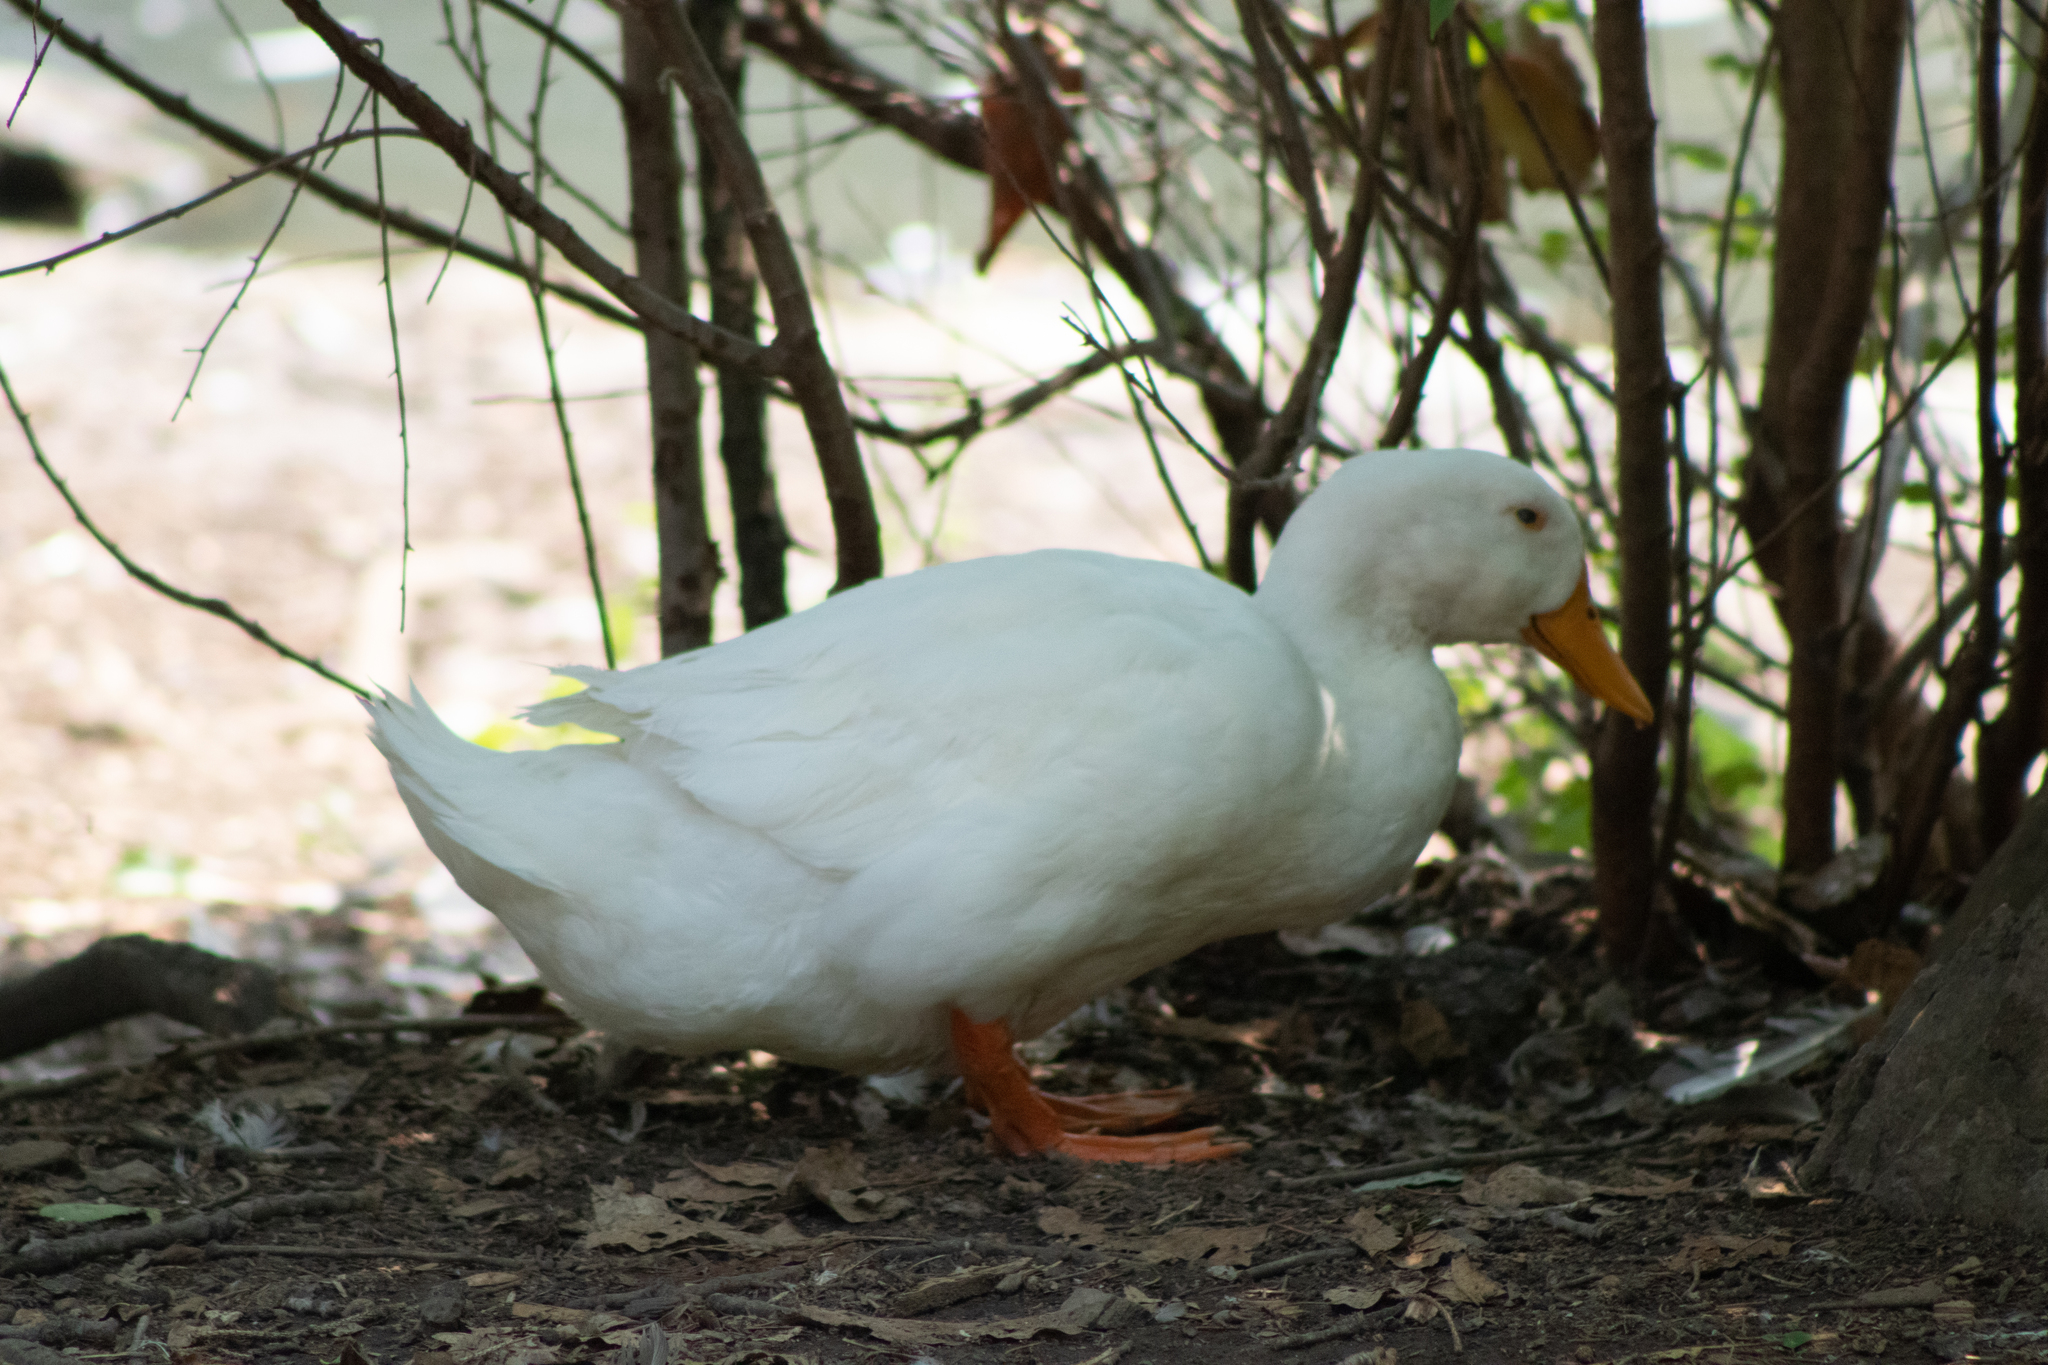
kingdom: Animalia
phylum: Chordata
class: Aves
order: Anseriformes
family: Anatidae
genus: Anas
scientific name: Anas platyrhynchos
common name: Mallard
